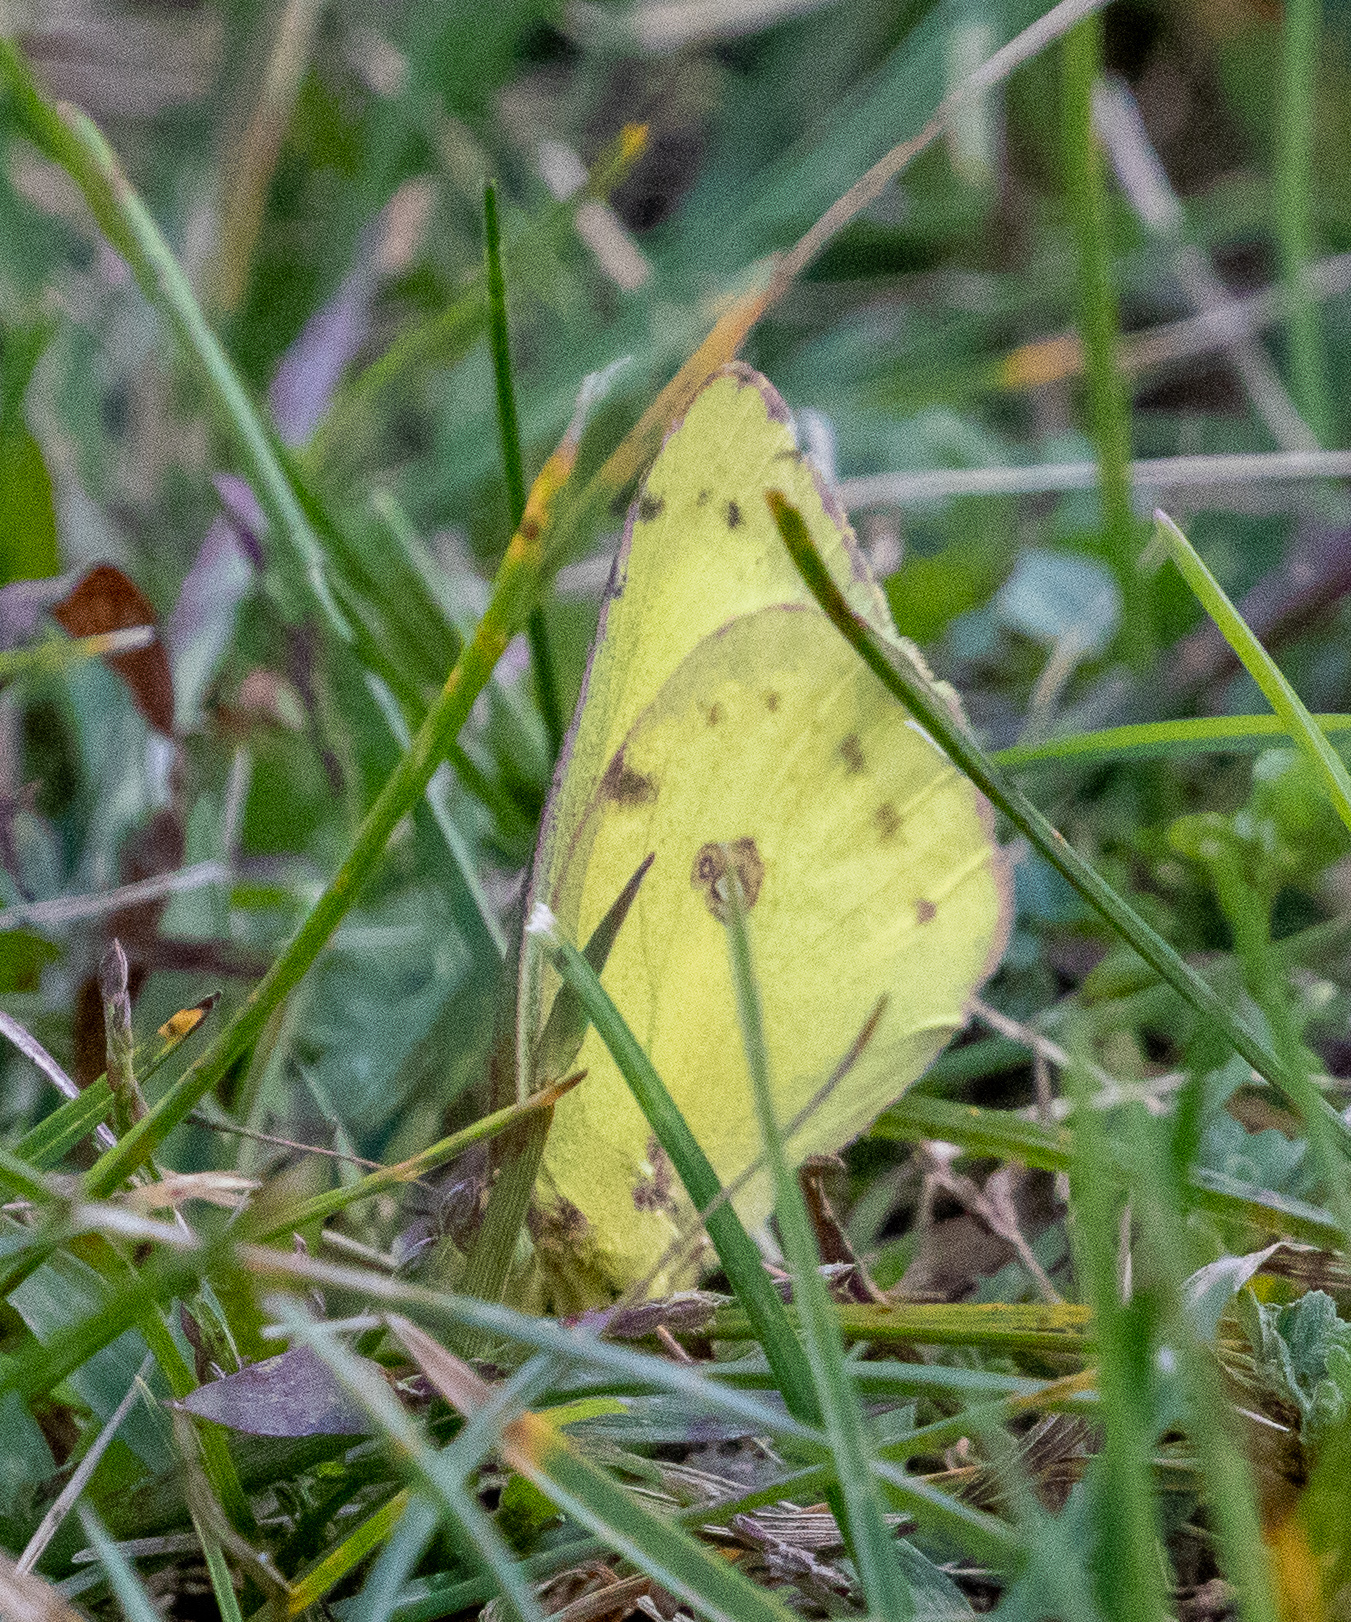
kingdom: Animalia
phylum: Arthropoda
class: Insecta
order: Lepidoptera
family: Pieridae
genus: Colias
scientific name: Colias philodice
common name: Clouded sulphur
